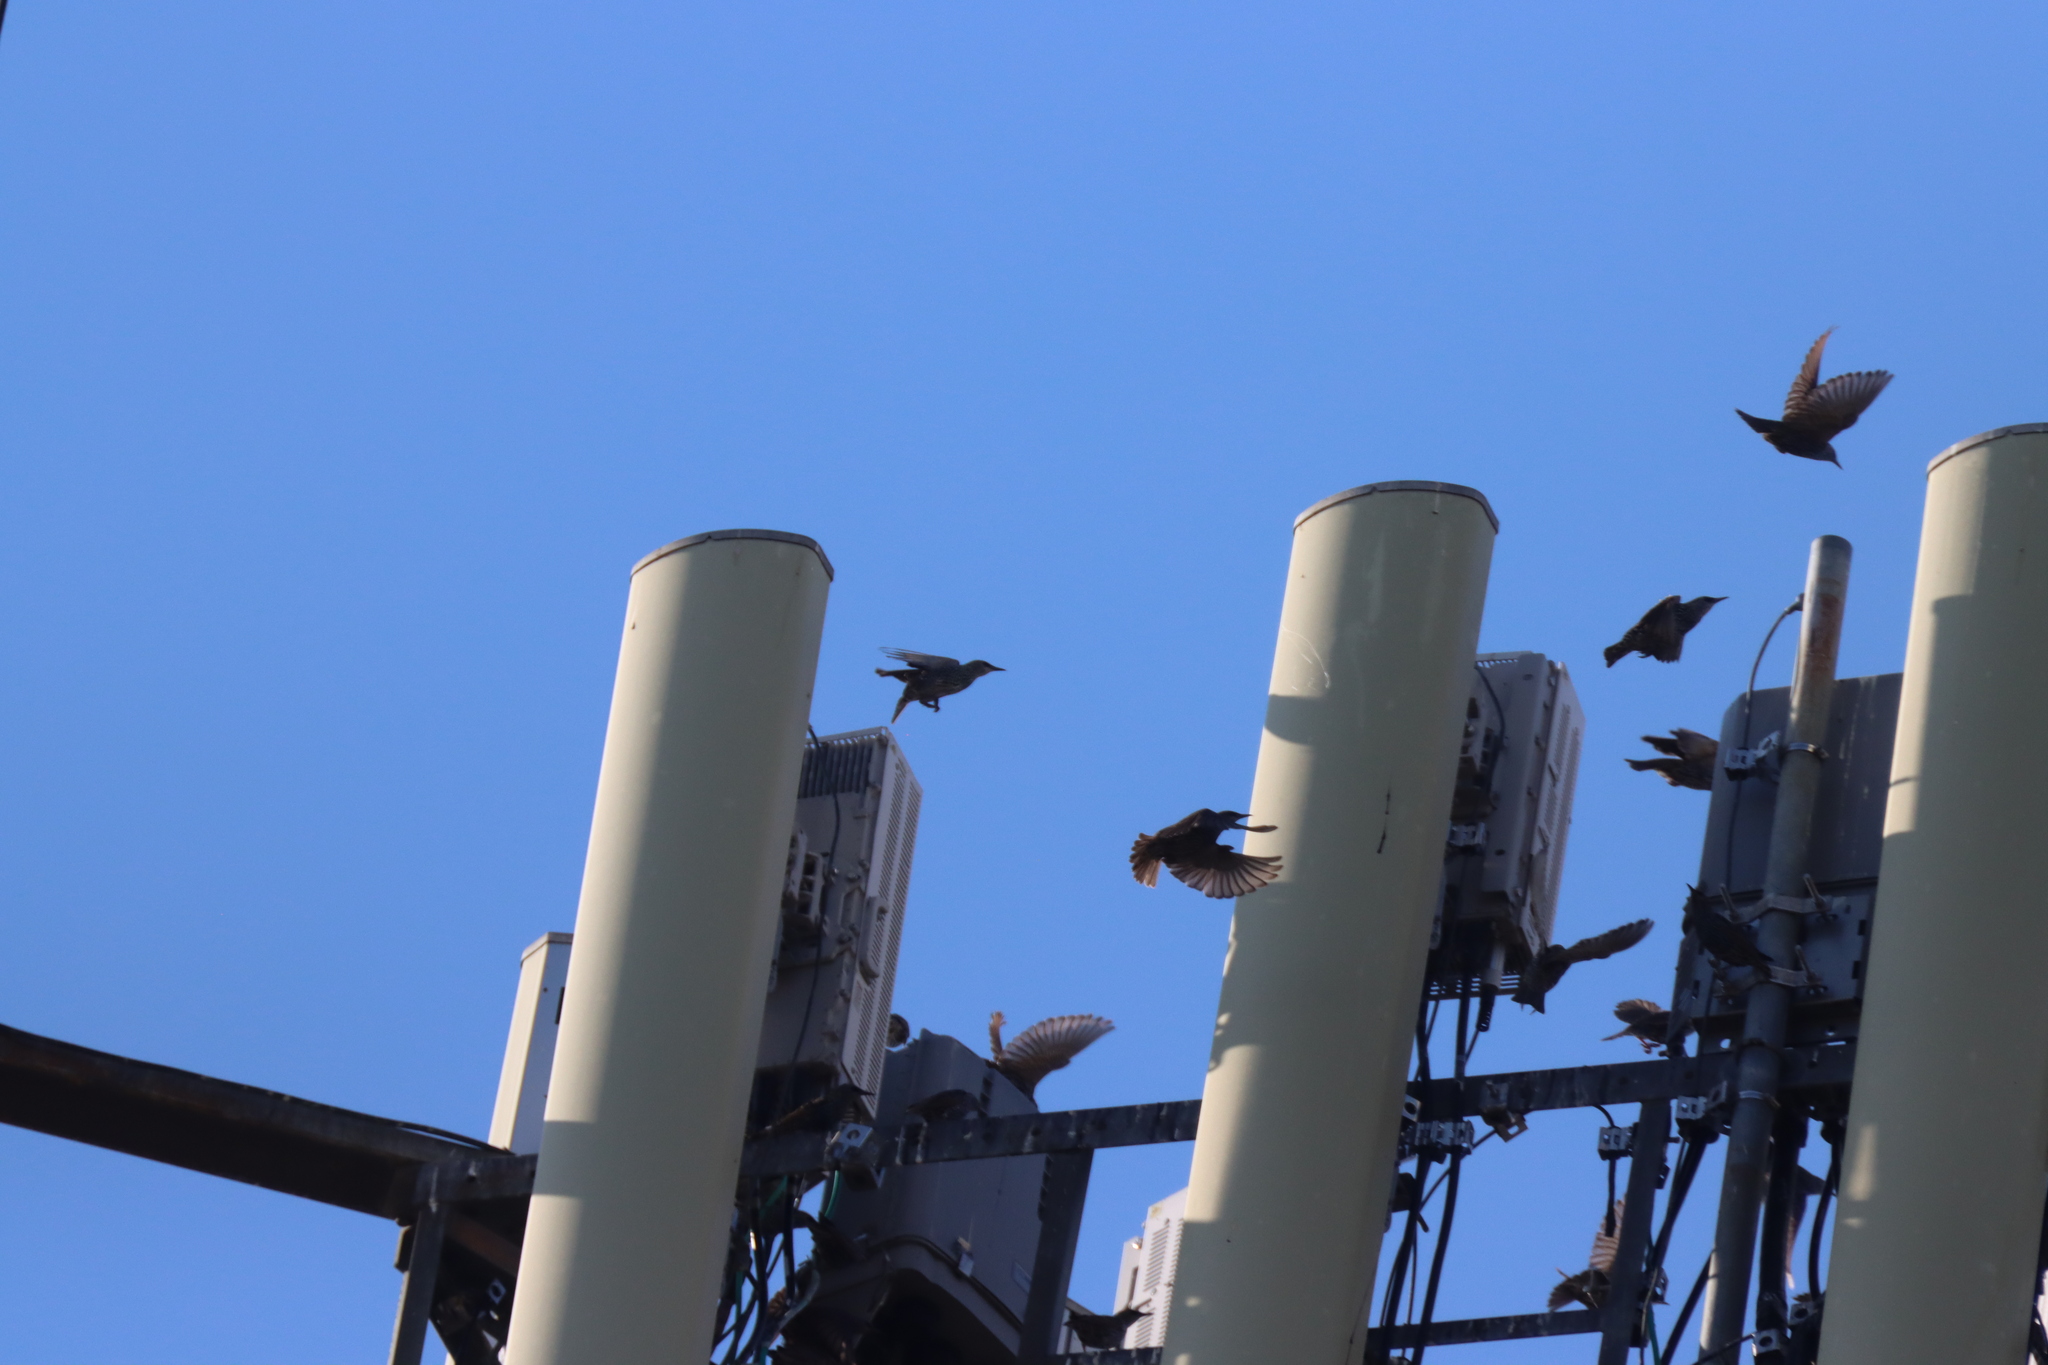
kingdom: Animalia
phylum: Chordata
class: Aves
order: Passeriformes
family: Sturnidae
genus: Sturnus
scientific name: Sturnus vulgaris
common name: Common starling
